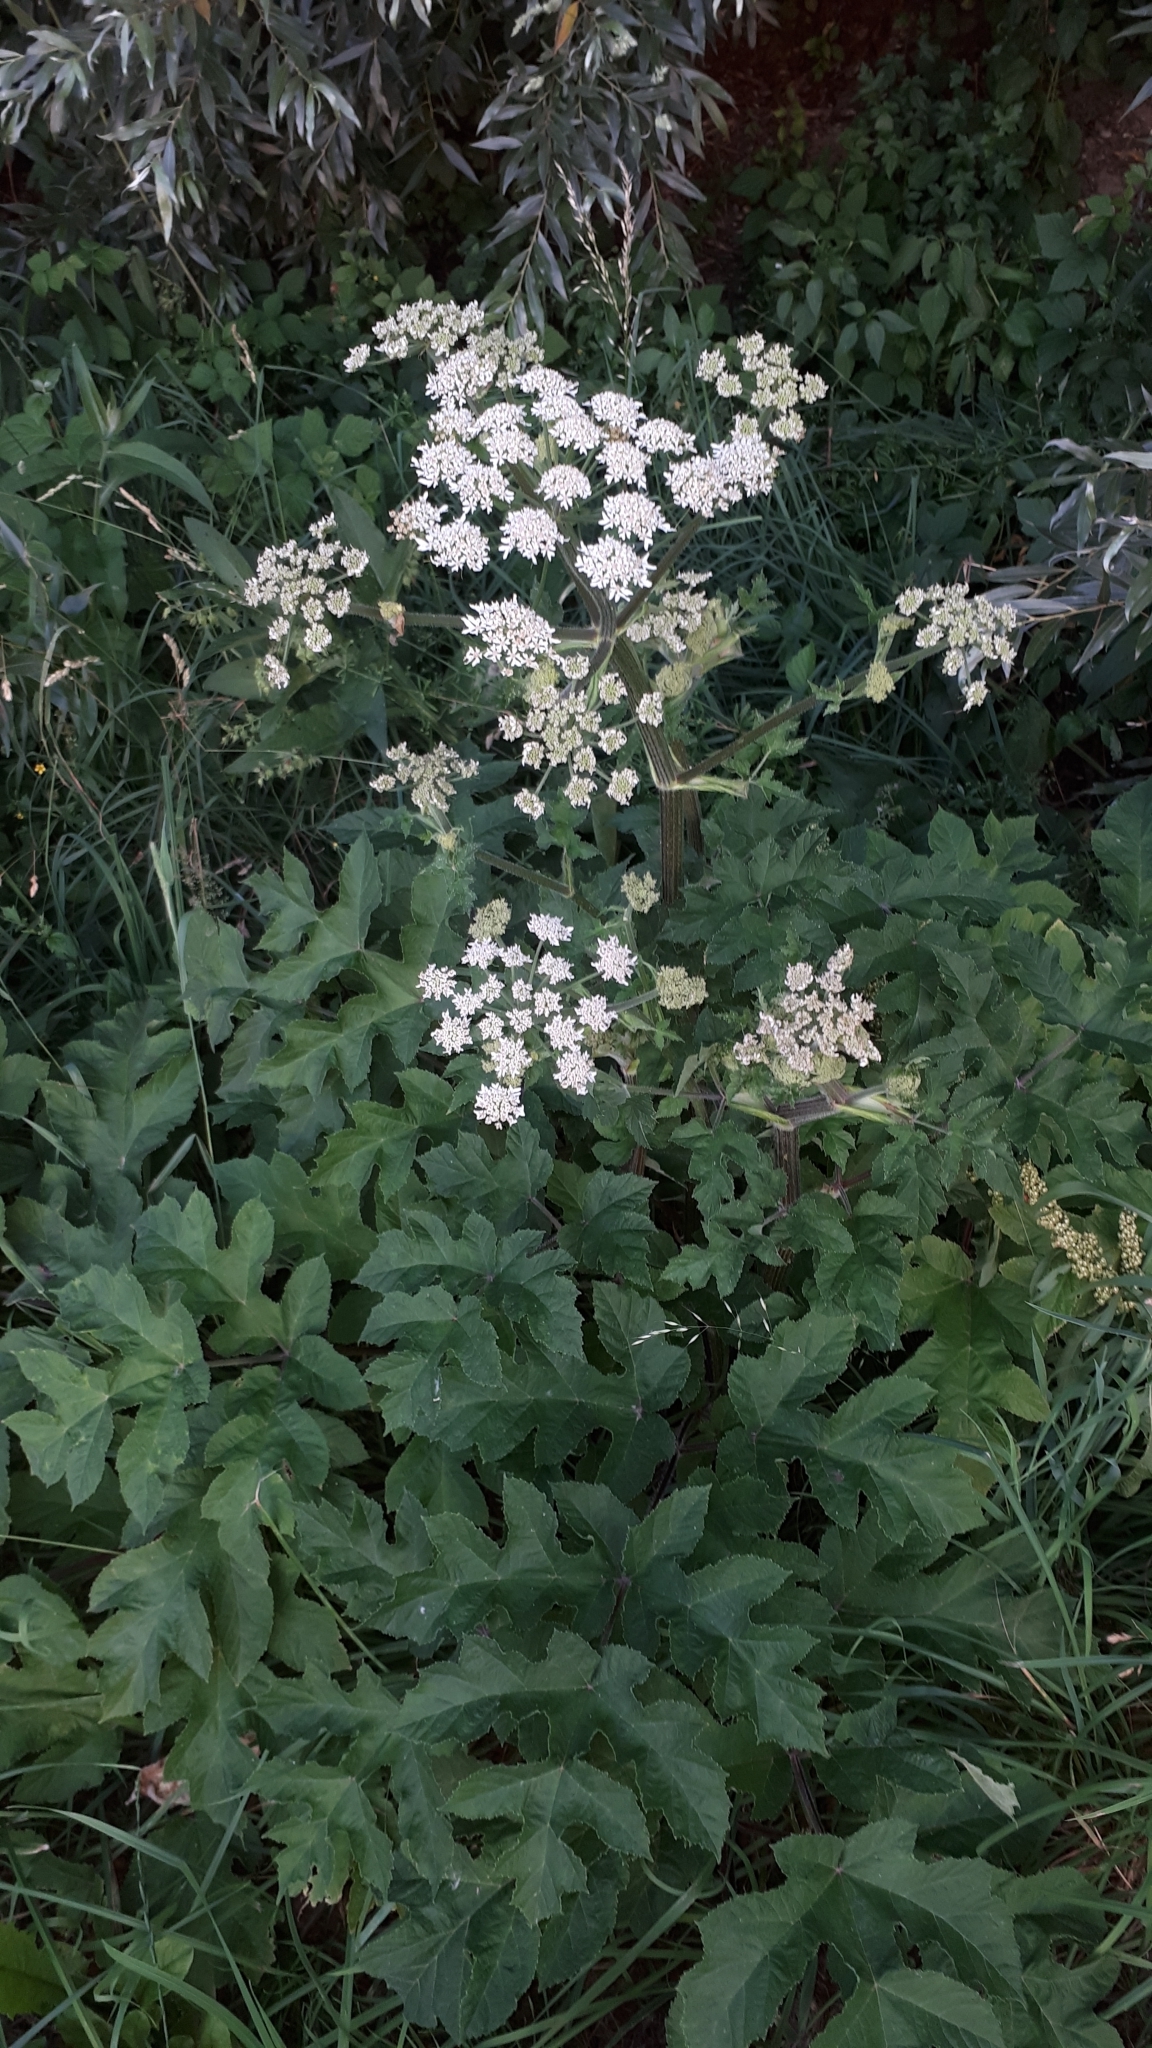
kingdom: Plantae
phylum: Tracheophyta
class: Magnoliopsida
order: Apiales
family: Apiaceae
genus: Heracleum
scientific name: Heracleum sphondylium
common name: Hogweed
